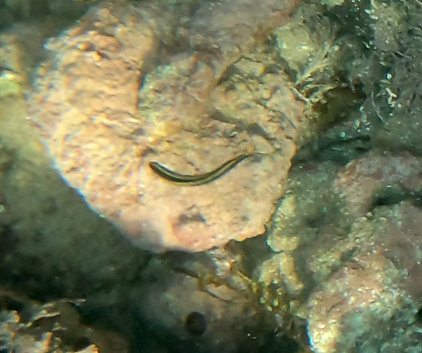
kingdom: Animalia
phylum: Chordata
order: Perciformes
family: Plesiopidae
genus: Trachinops
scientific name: Trachinops taeniatus
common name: Eastern hulafish
